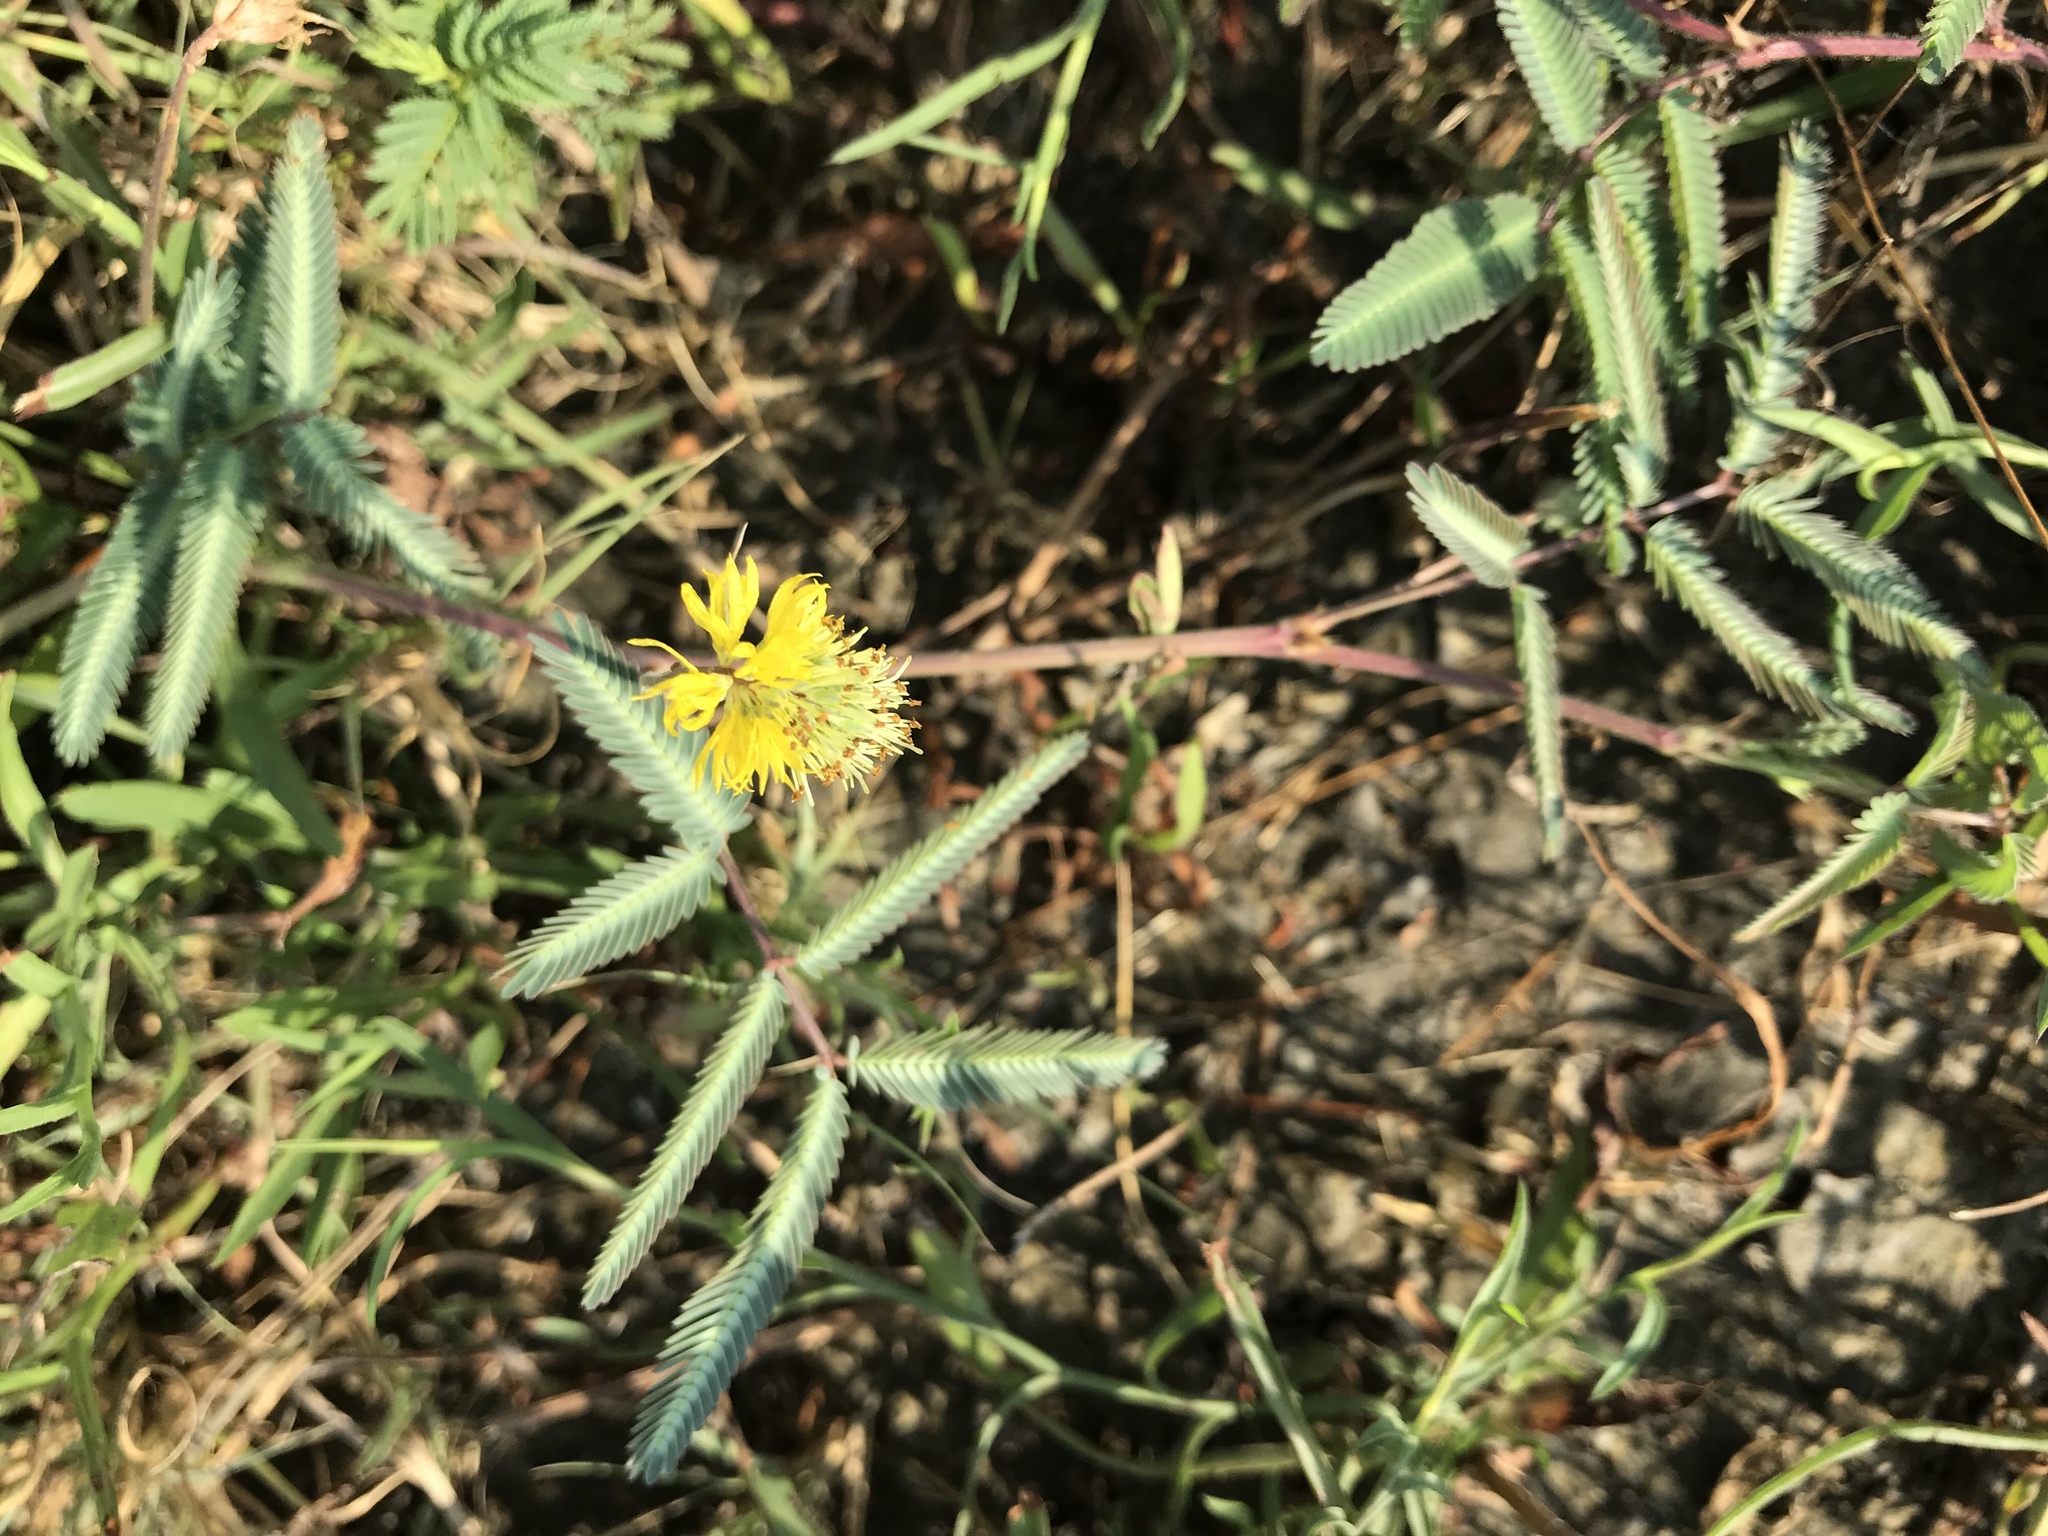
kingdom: Plantae
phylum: Tracheophyta
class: Magnoliopsida
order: Fabales
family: Fabaceae
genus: Neptunia
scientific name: Neptunia pubescens
